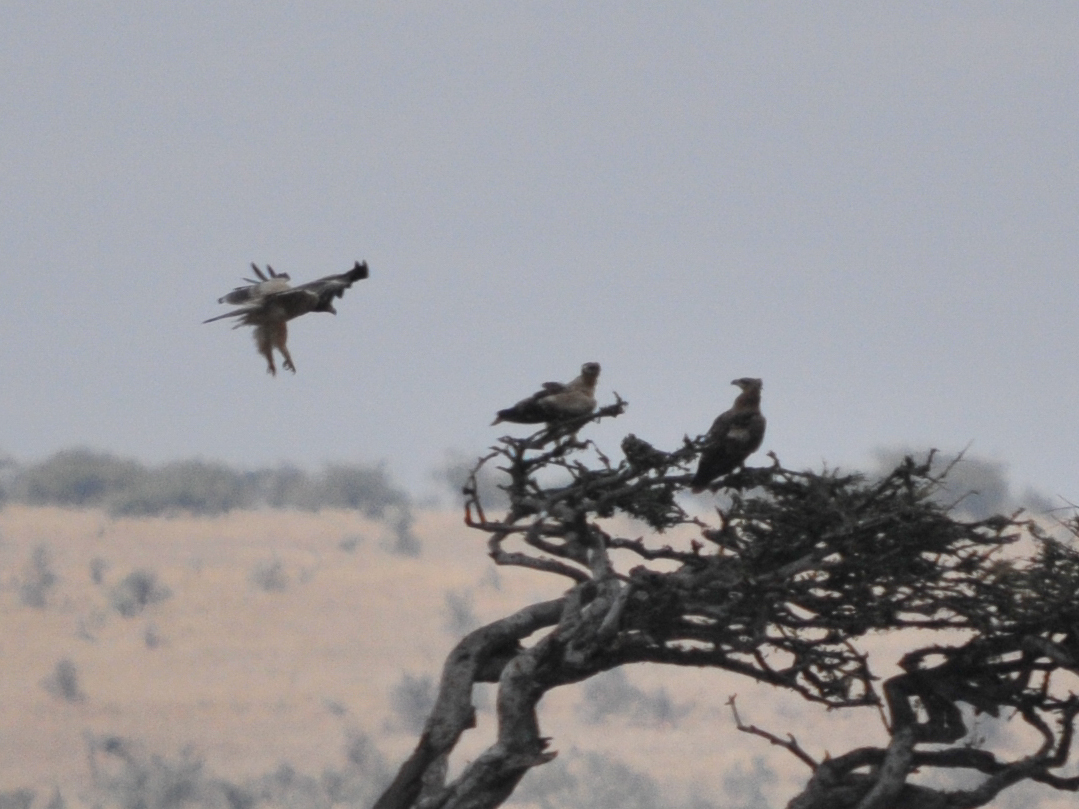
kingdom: Animalia
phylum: Chordata
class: Aves
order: Accipitriformes
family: Accipitridae
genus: Aquila
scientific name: Aquila rapax
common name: Tawny eagle
